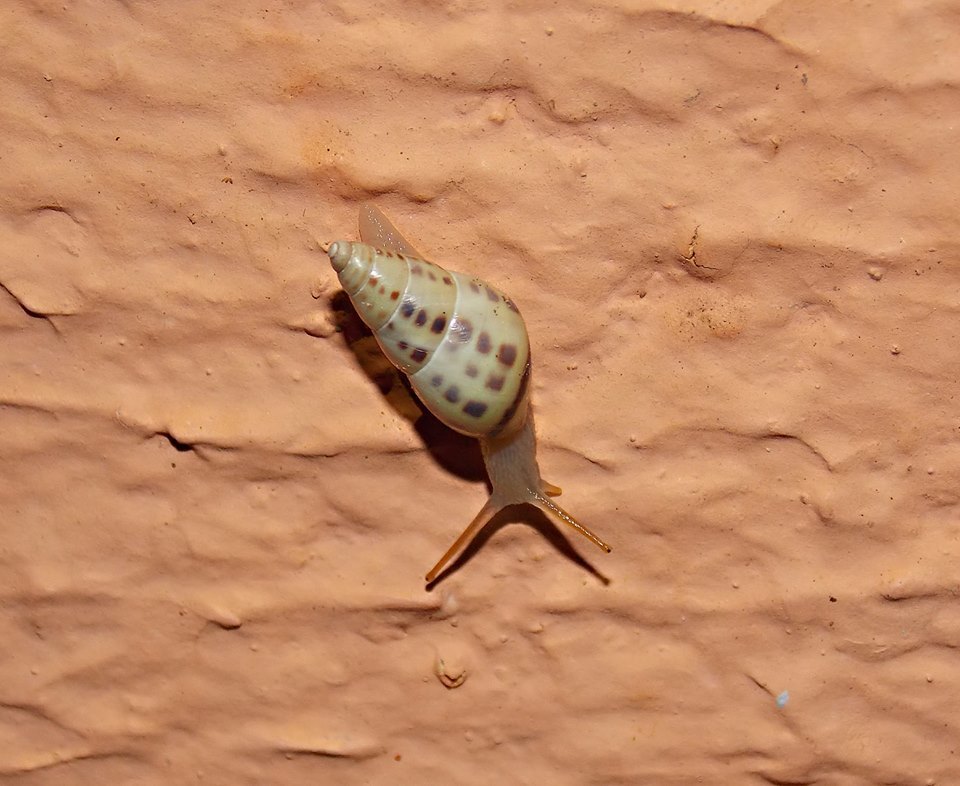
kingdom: Animalia
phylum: Mollusca
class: Gastropoda
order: Stylommatophora
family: Bulimulidae
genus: Drymaeus
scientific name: Drymaeus
